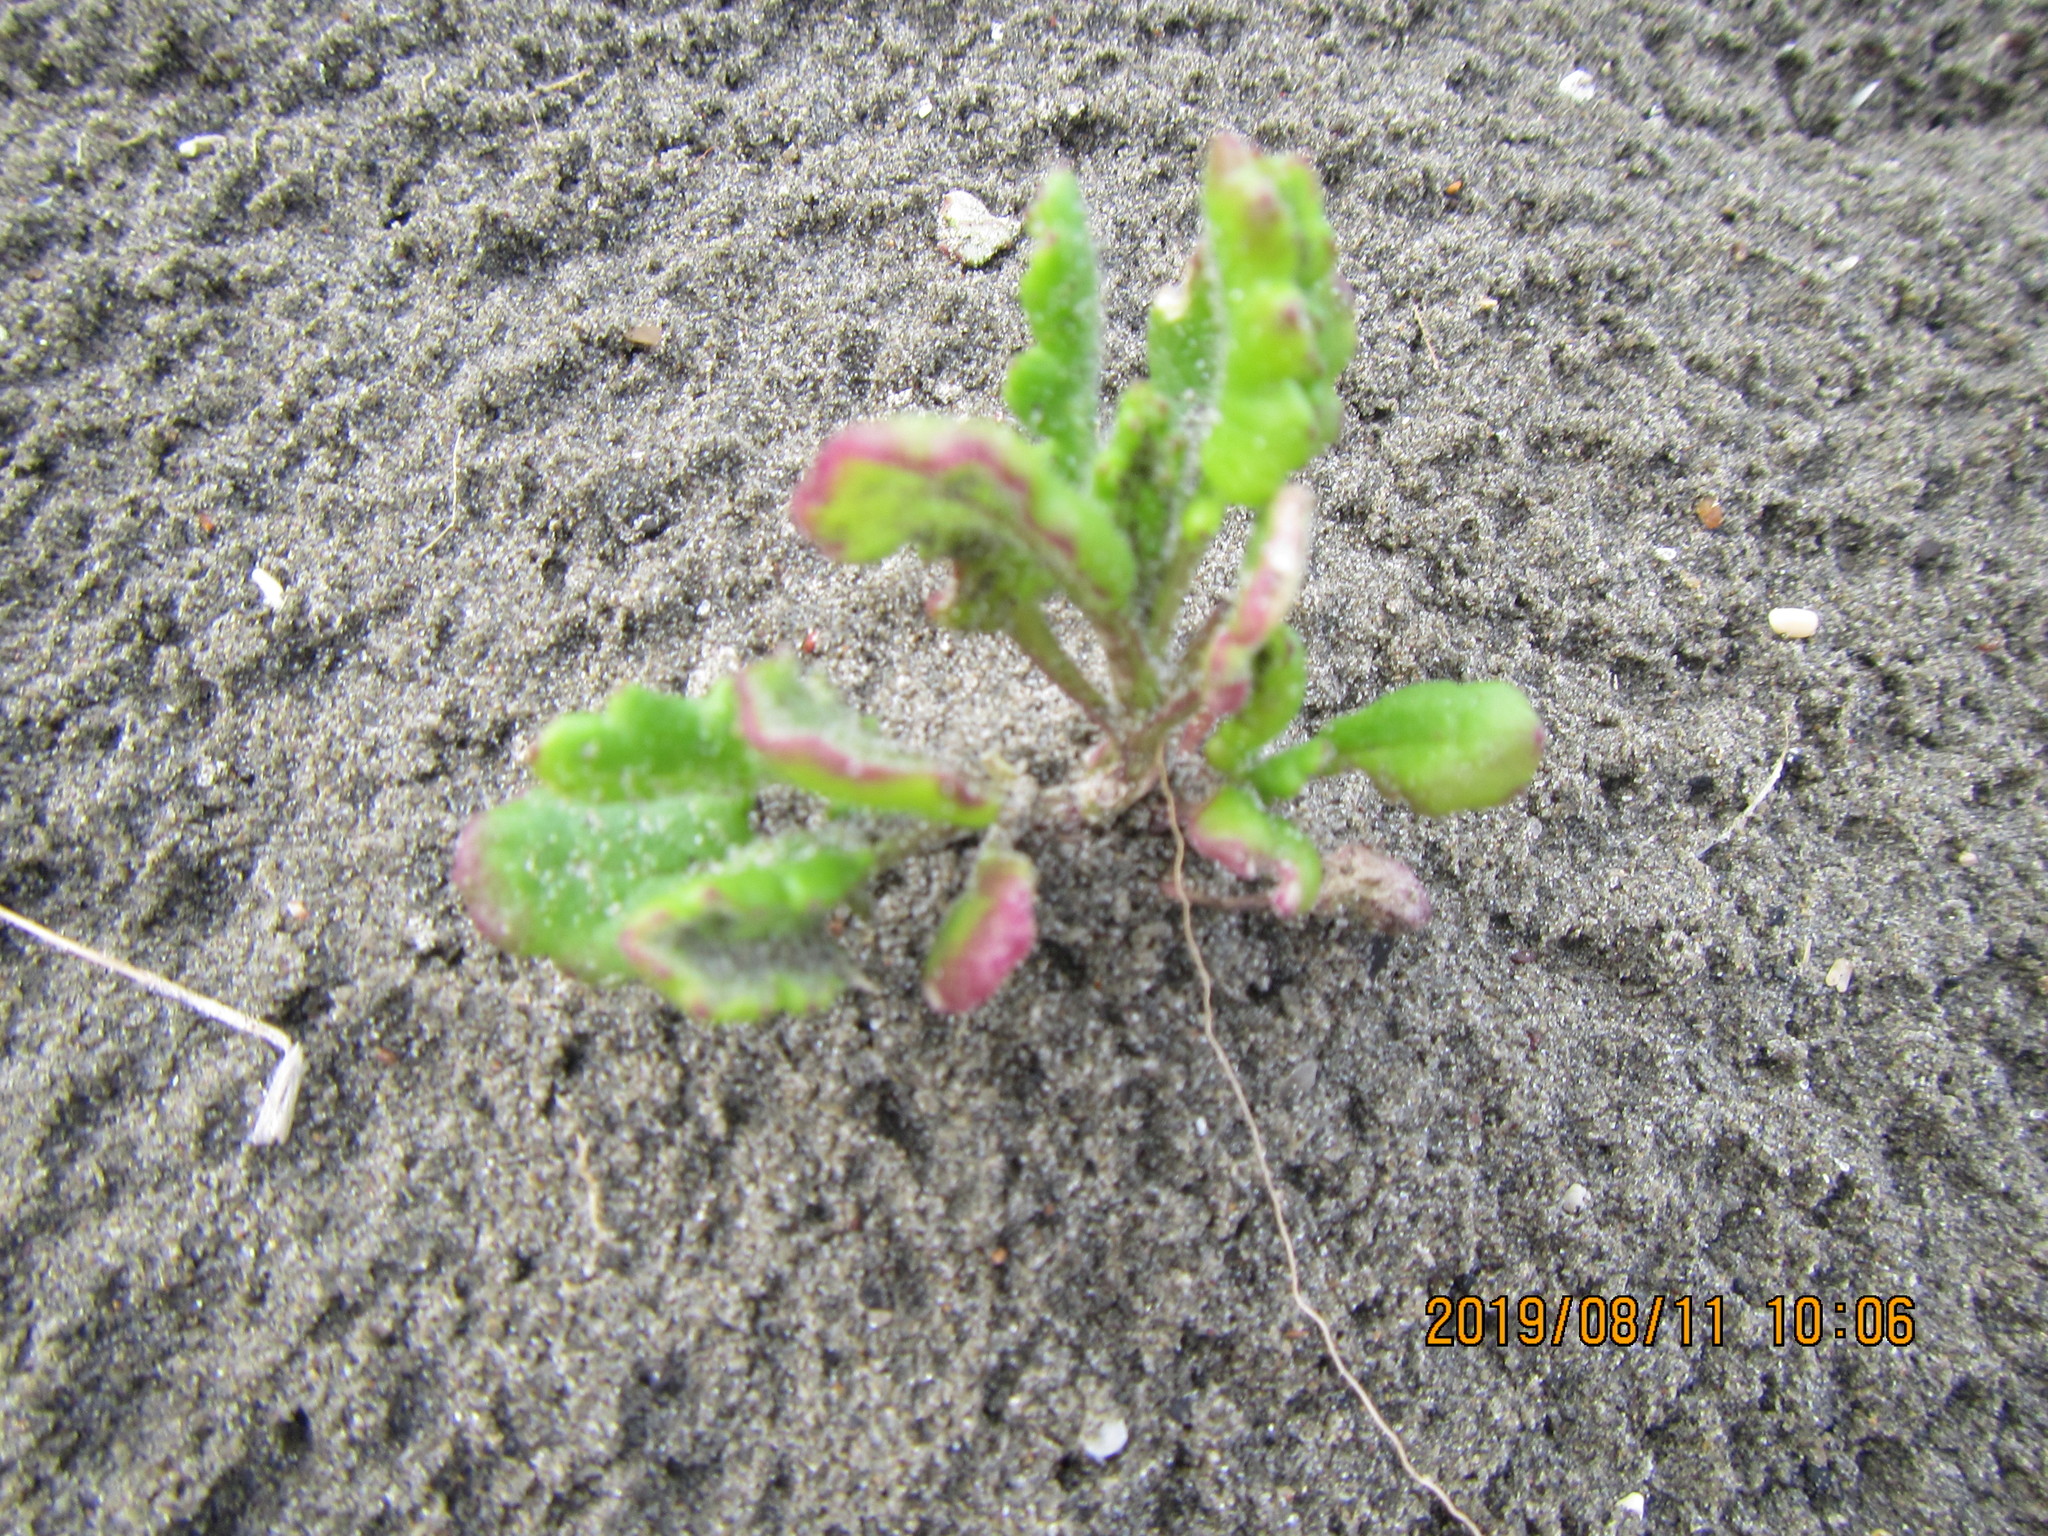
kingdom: Plantae
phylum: Tracheophyta
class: Magnoliopsida
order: Asterales
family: Asteraceae
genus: Senecio
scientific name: Senecio elegans
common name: Purple groundsel
